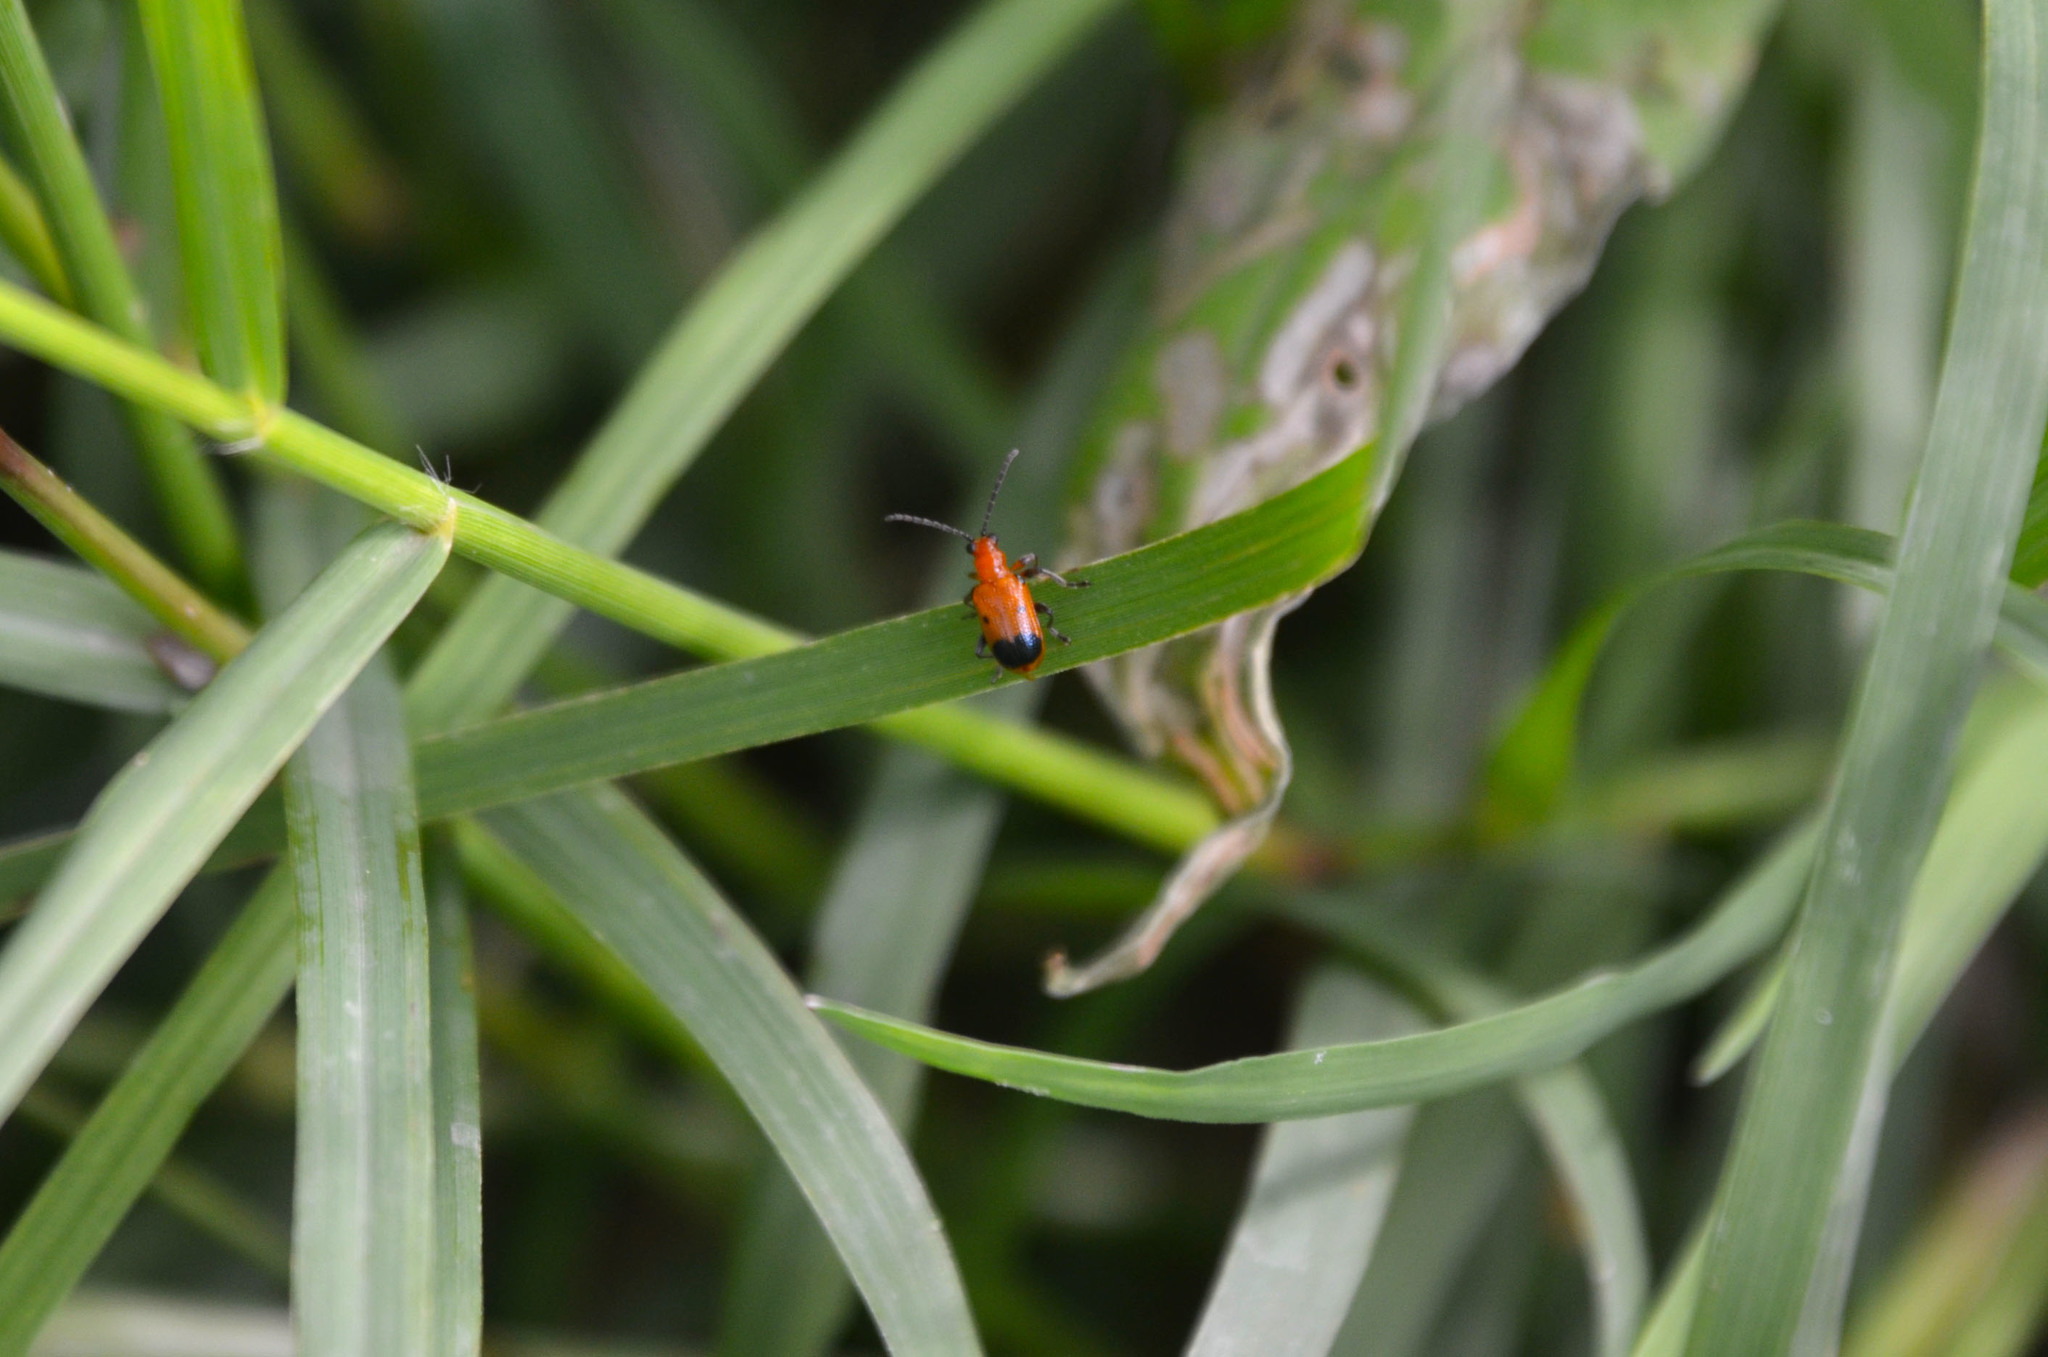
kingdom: Animalia
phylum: Arthropoda
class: Insecta
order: Coleoptera
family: Chrysomelidae
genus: Neolema
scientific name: Neolema dorsalis
